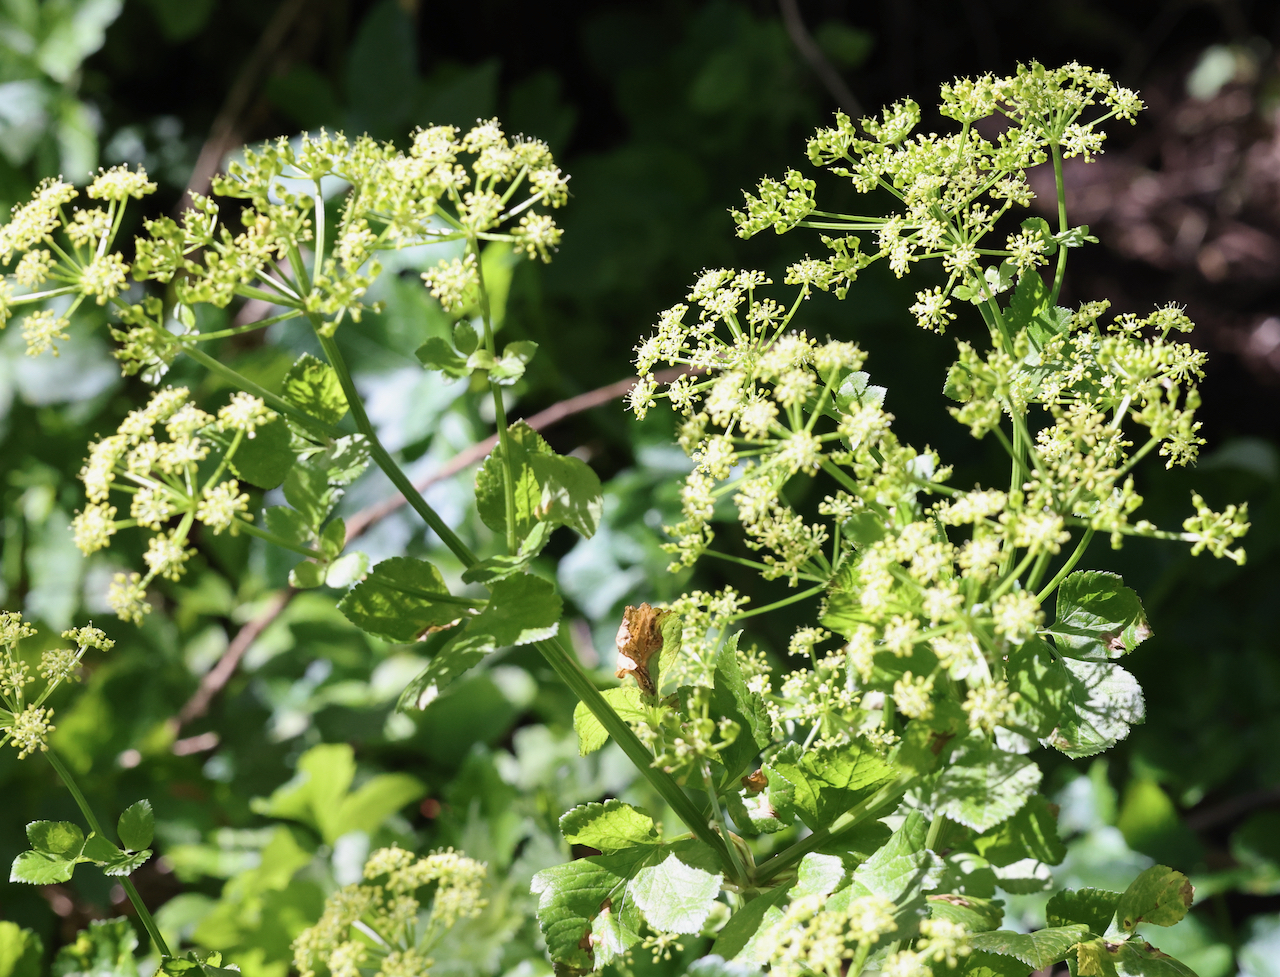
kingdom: Plantae
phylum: Tracheophyta
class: Magnoliopsida
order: Apiales
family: Apiaceae
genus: Smyrnium
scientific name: Smyrnium olusatrum
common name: Alexanders
